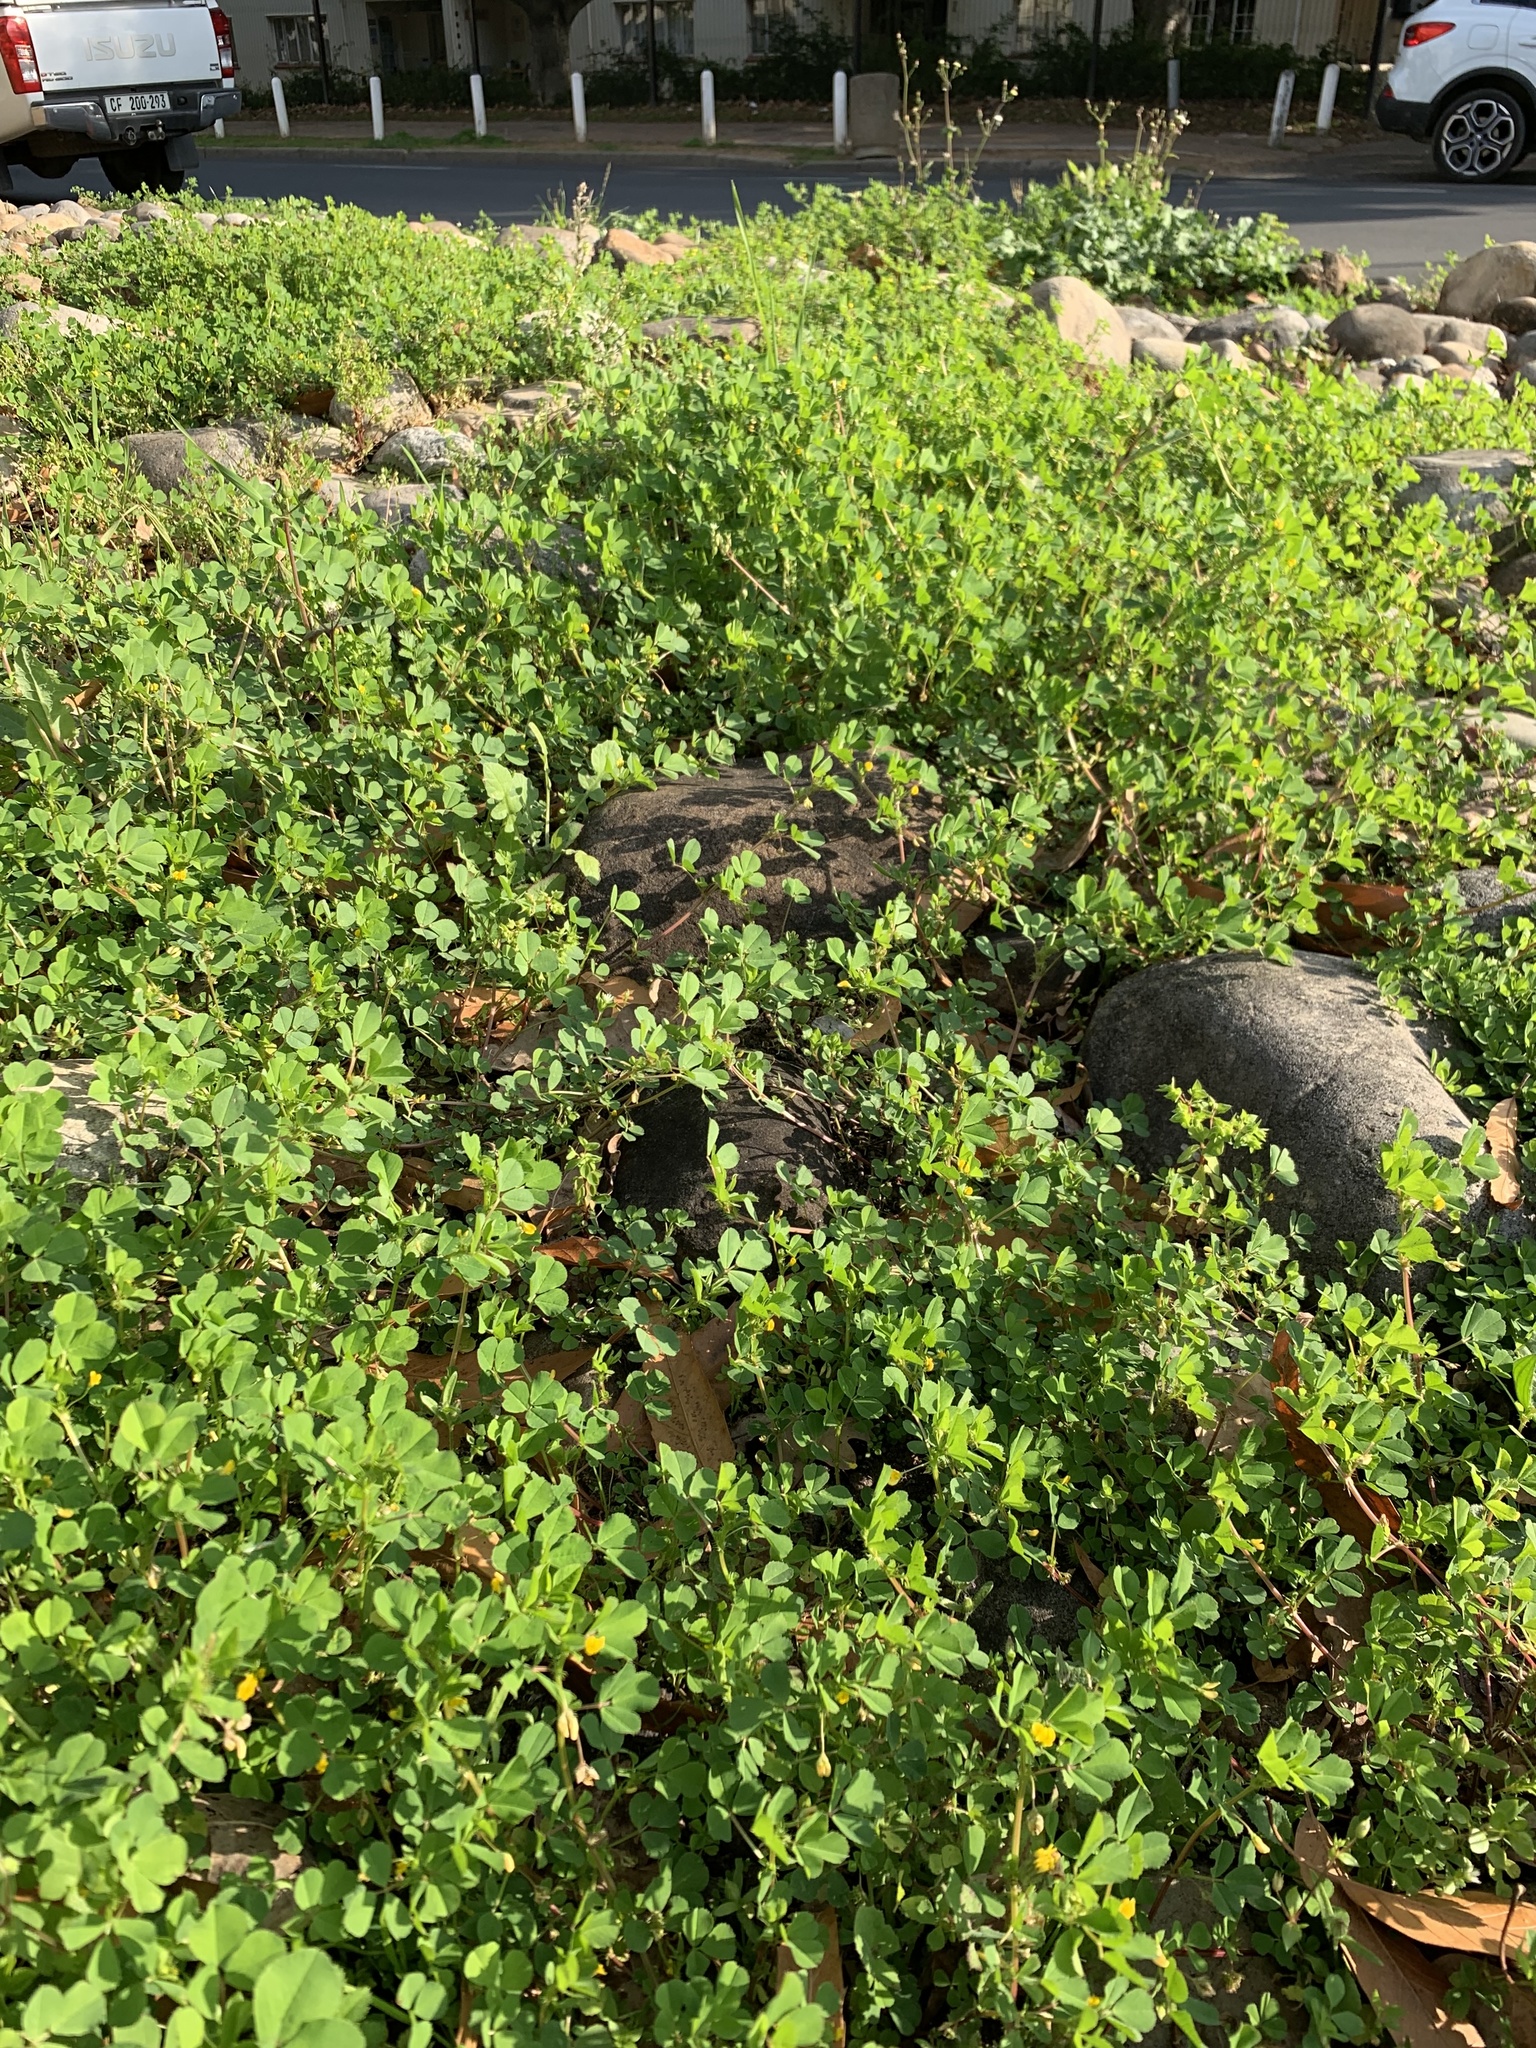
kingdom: Plantae
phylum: Tracheophyta
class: Magnoliopsida
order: Fabales
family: Fabaceae
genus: Medicago
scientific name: Medicago polymorpha
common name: Burclover
